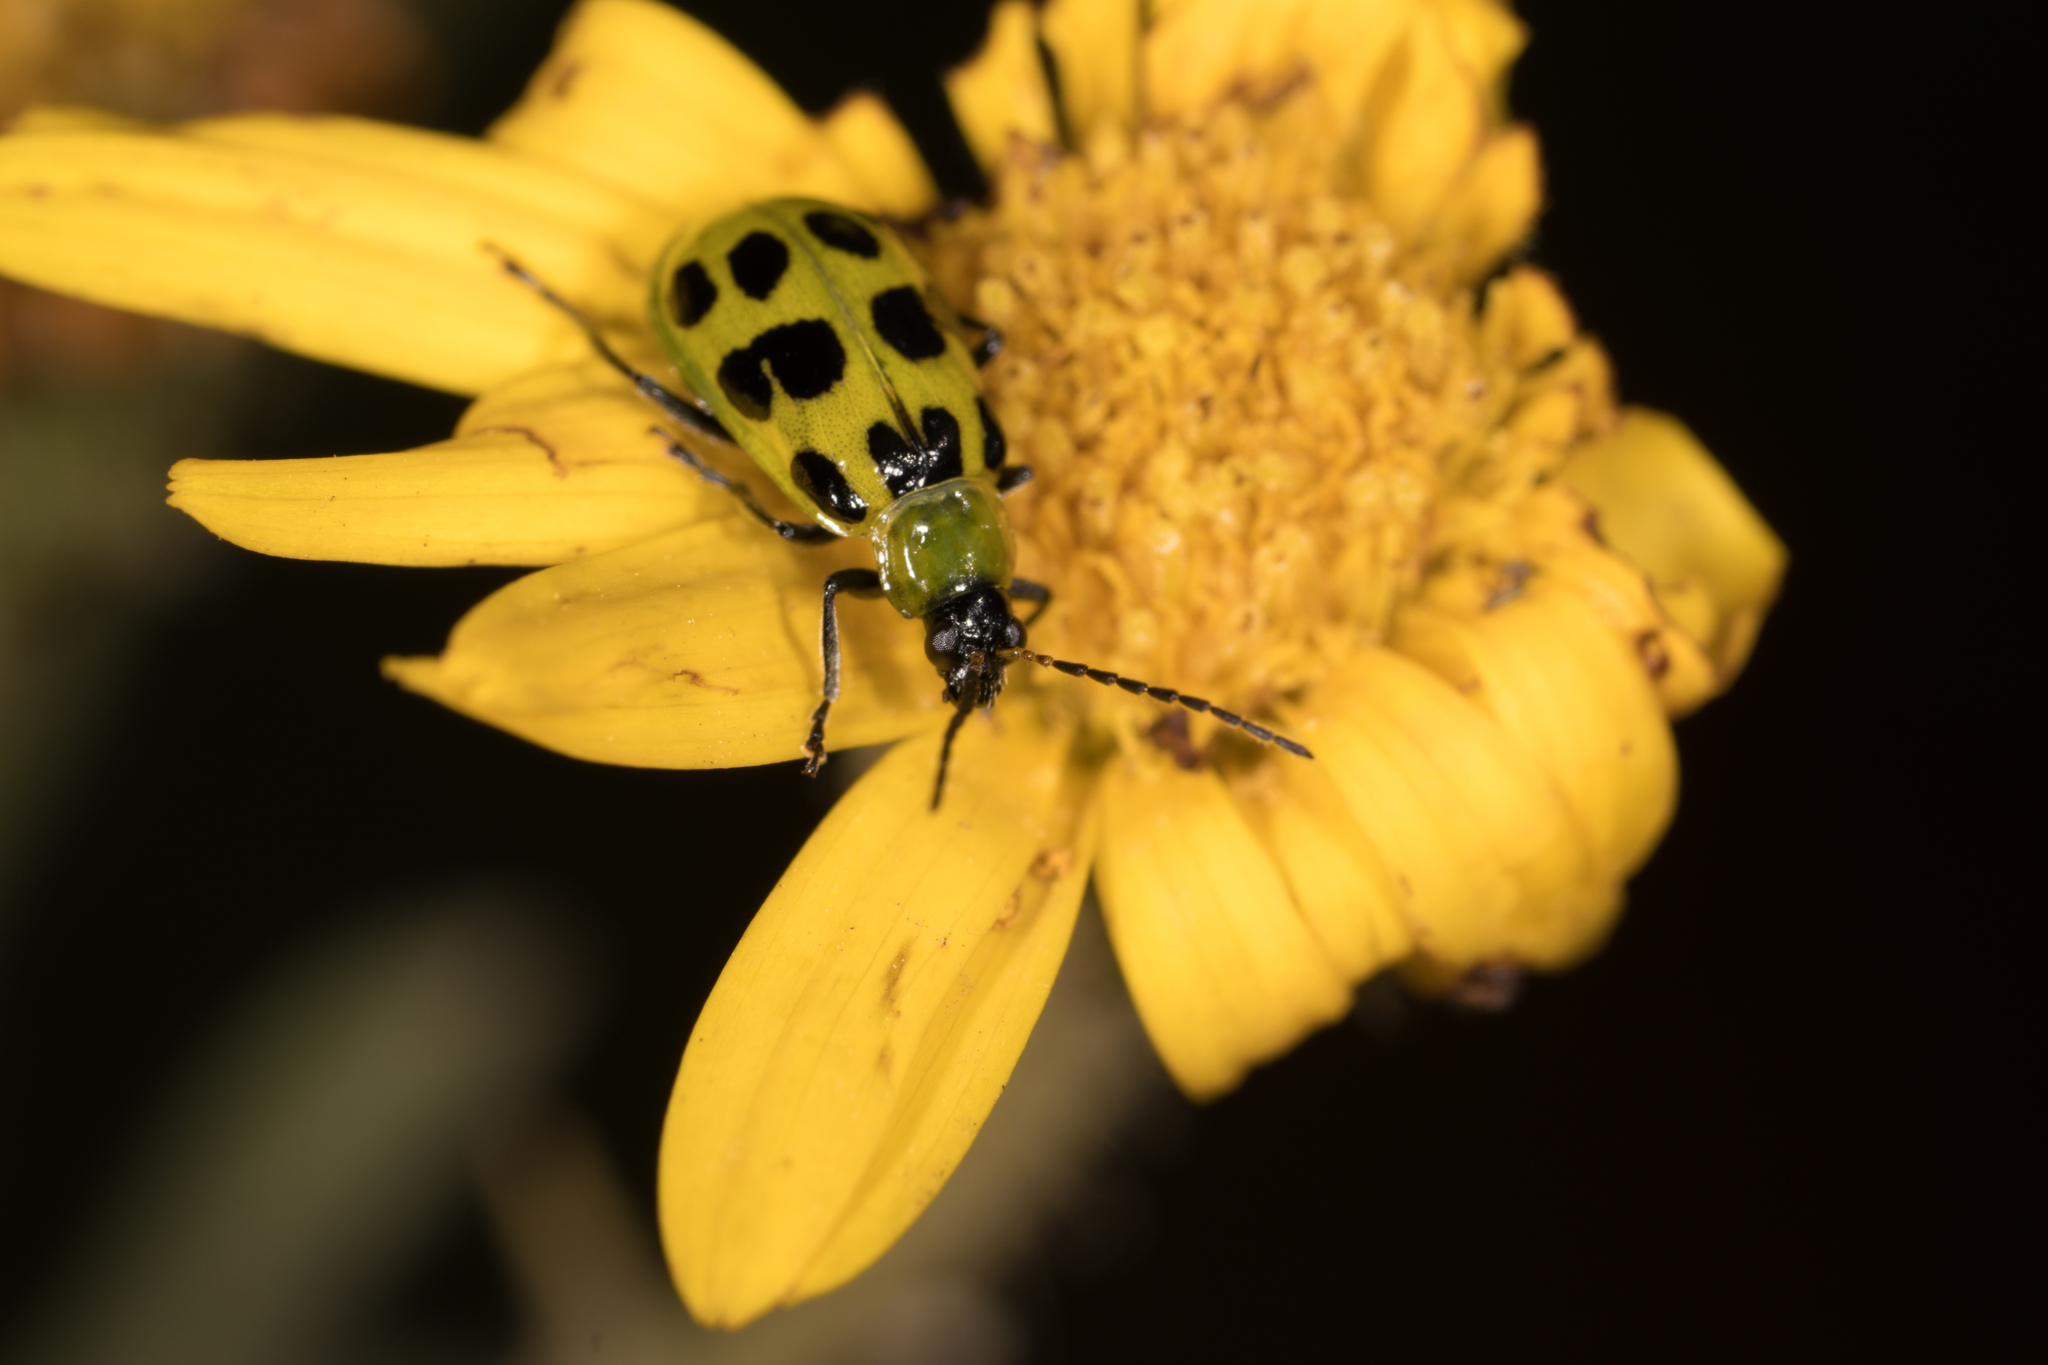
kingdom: Animalia
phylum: Arthropoda
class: Insecta
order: Coleoptera
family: Chrysomelidae
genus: Diabrotica
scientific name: Diabrotica undecimpunctata
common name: Spotted cucumber beetle
